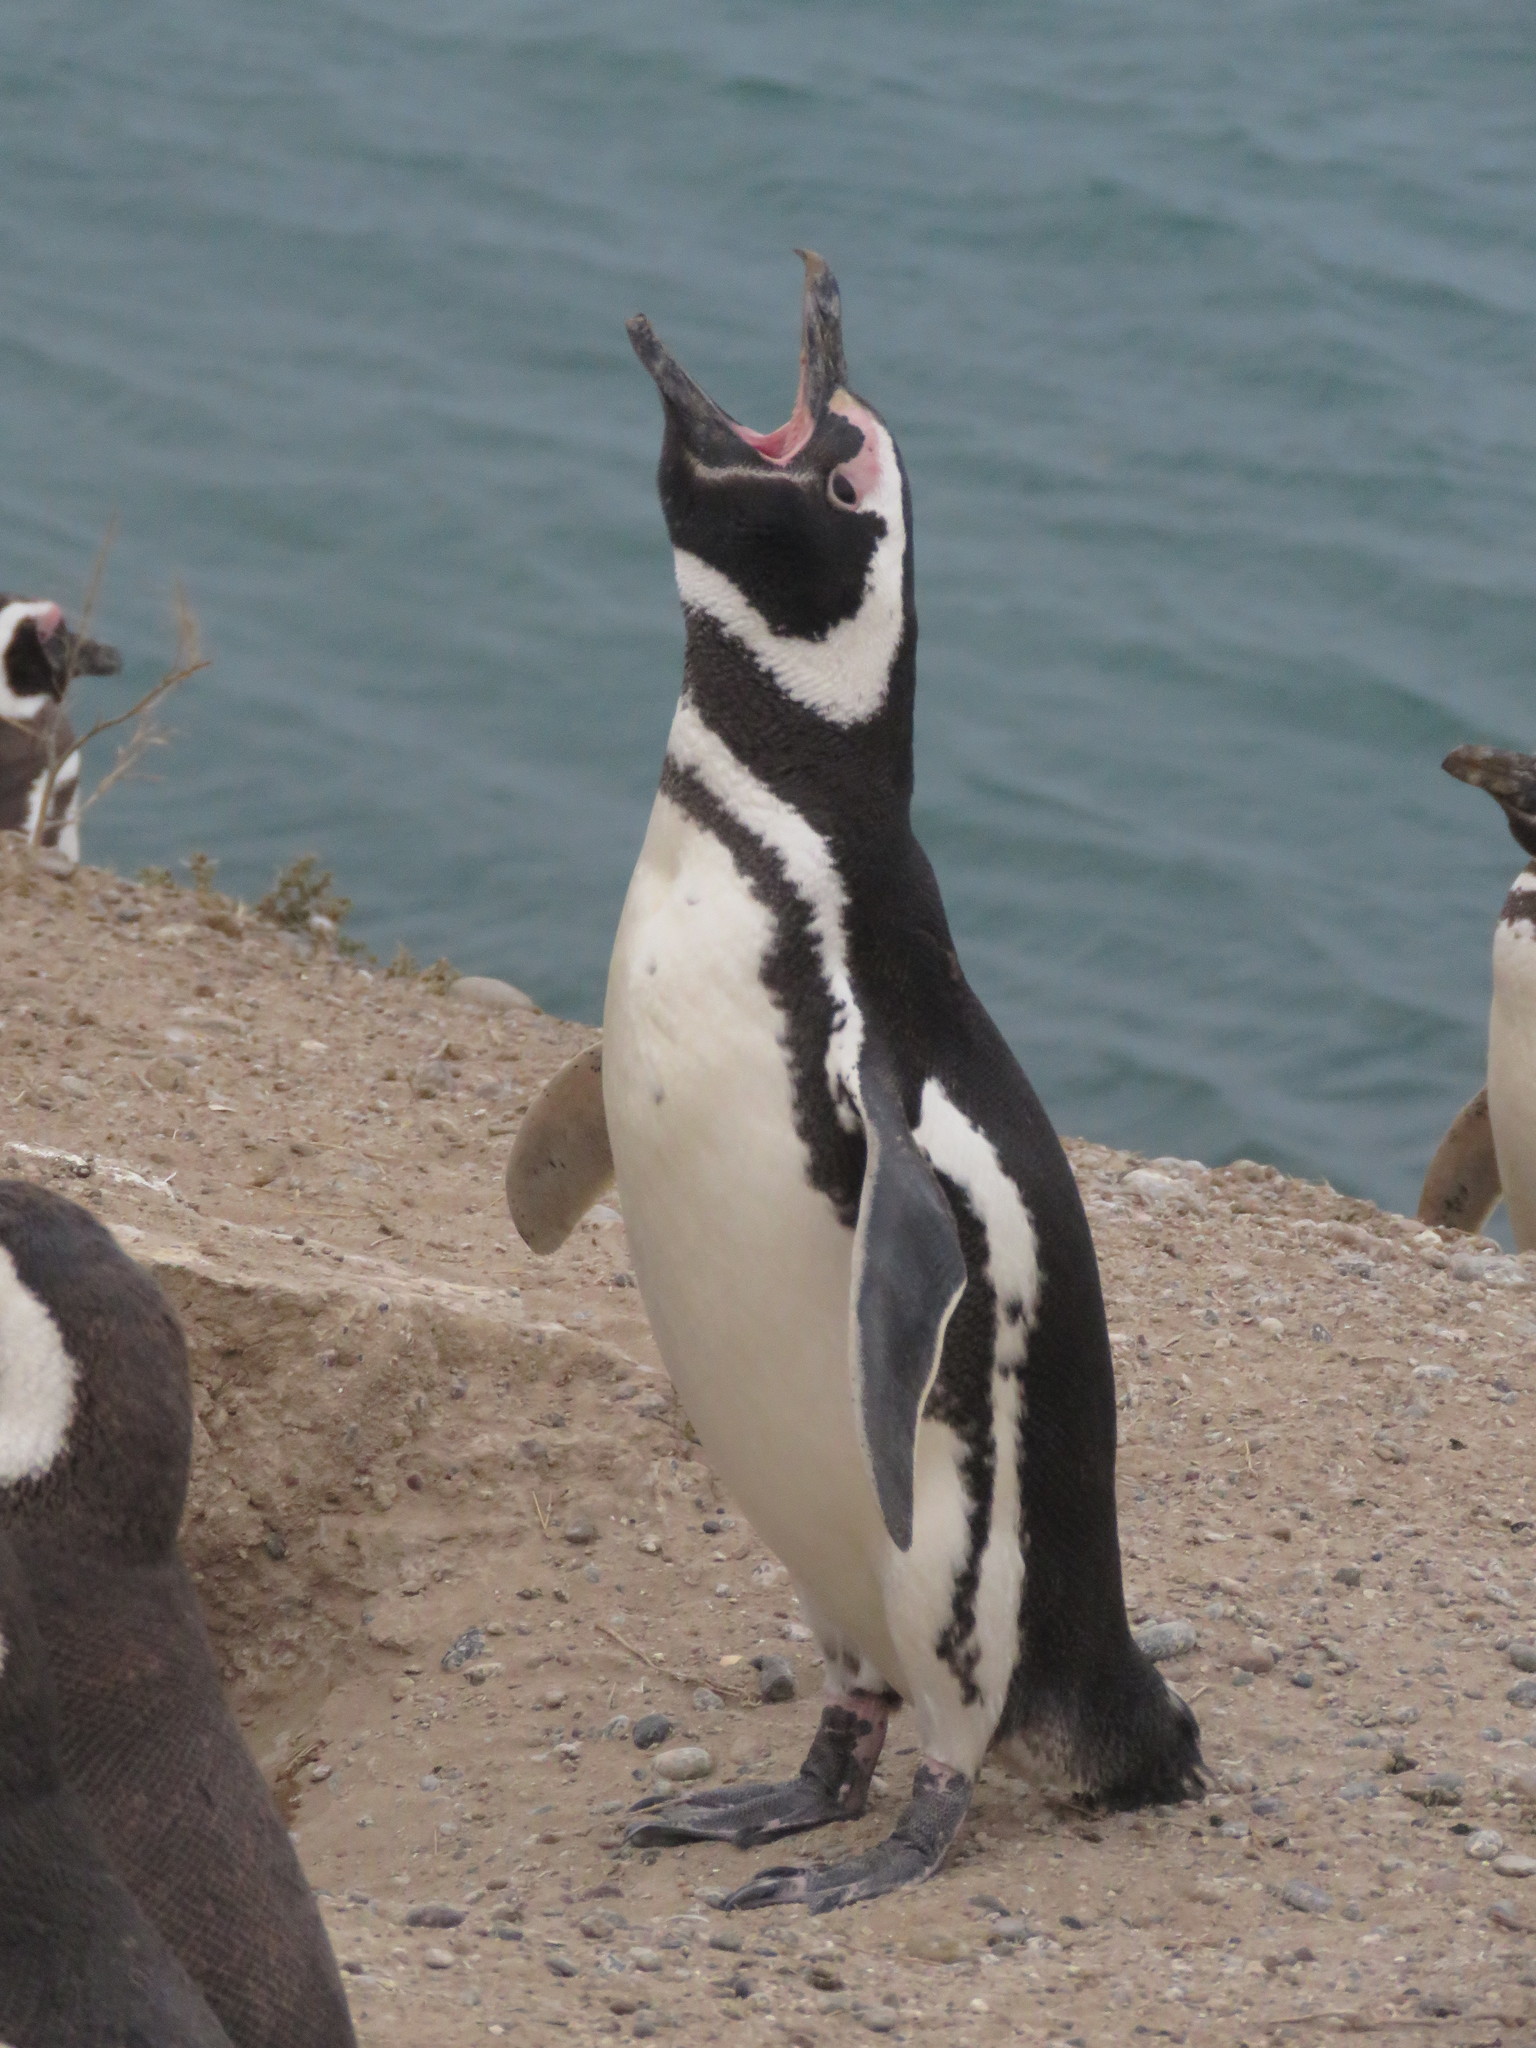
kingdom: Animalia
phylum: Chordata
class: Aves
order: Sphenisciformes
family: Spheniscidae
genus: Spheniscus
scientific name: Spheniscus magellanicus
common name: Magellanic penguin
